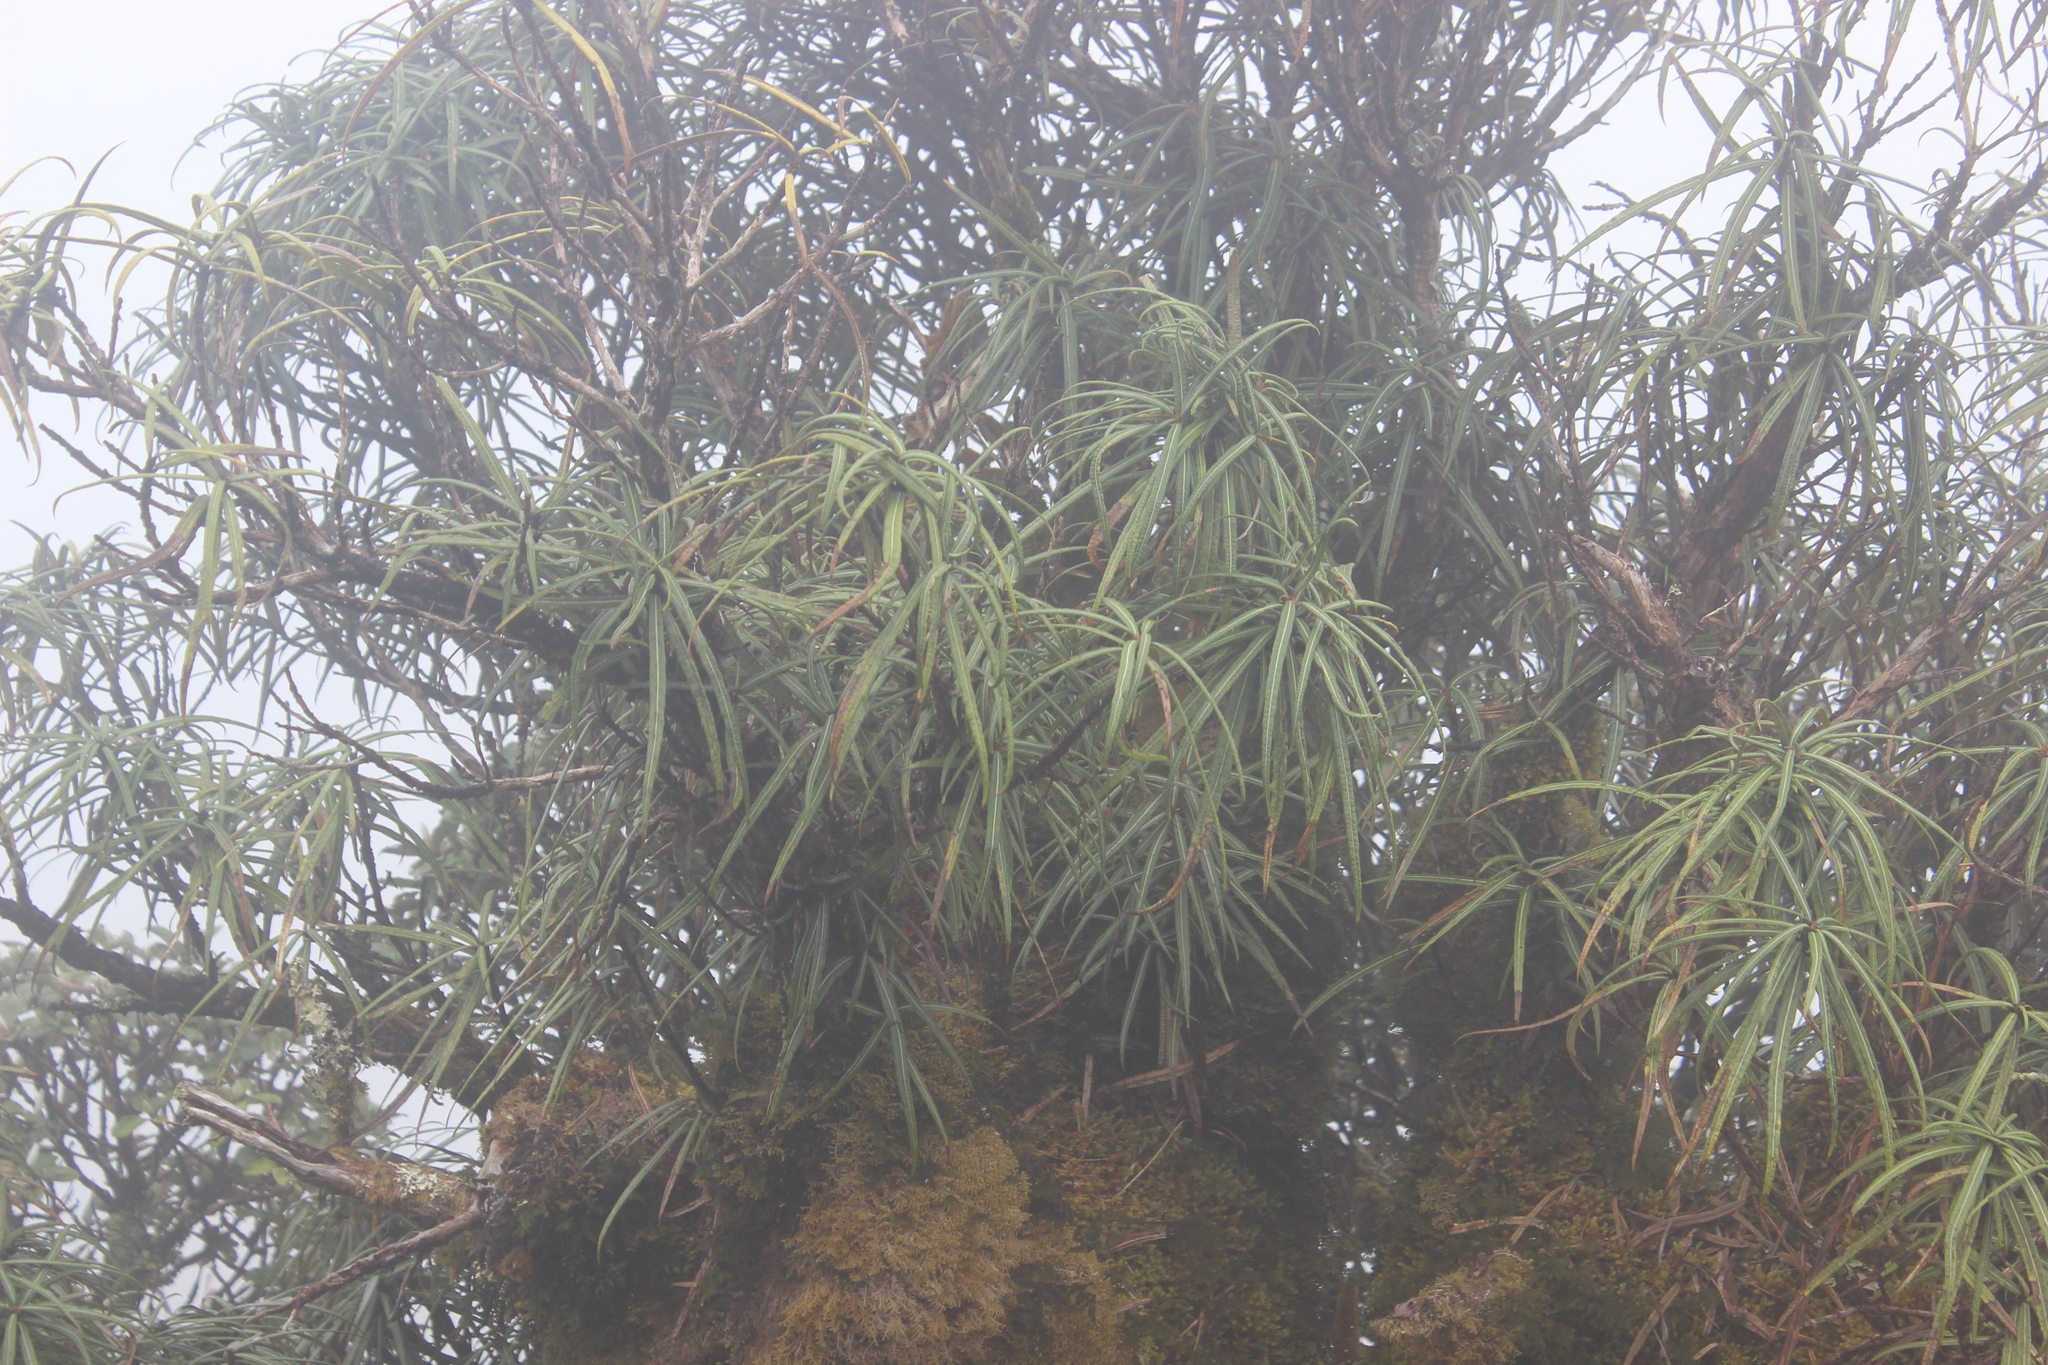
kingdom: Plantae
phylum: Tracheophyta
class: Magnoliopsida
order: Asterales
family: Asteraceae
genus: Olearia
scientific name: Olearia lacunosa
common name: Lancewood tree daisy
